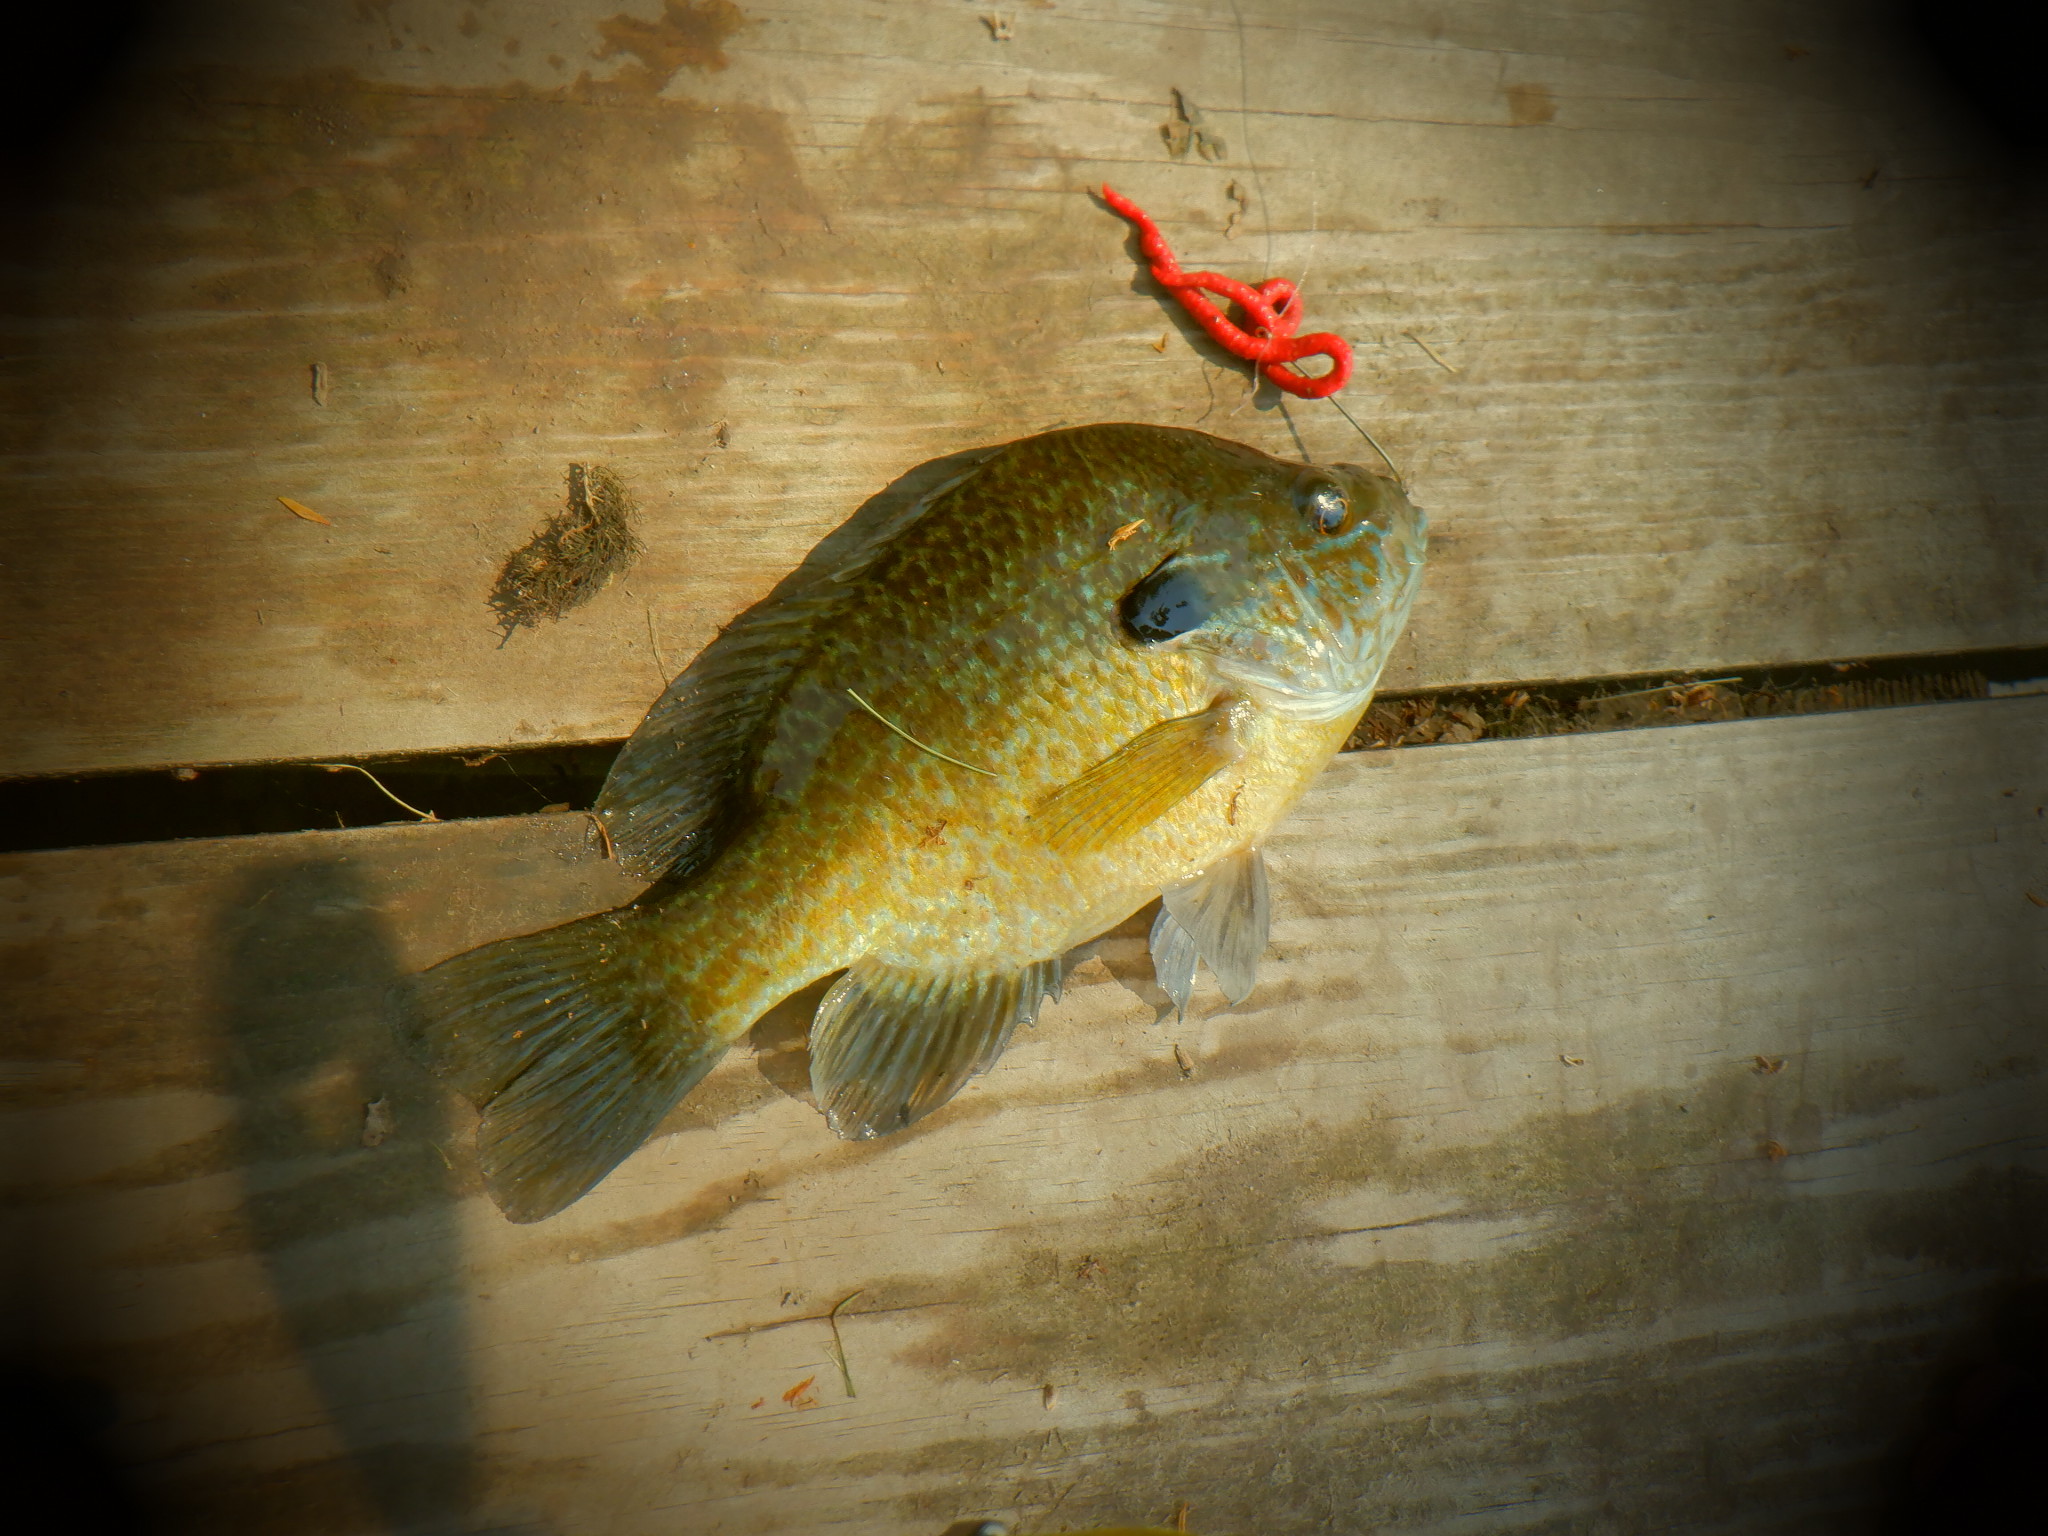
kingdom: Animalia
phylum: Chordata
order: Perciformes
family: Centrarchidae
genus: Lepomis
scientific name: Lepomis
